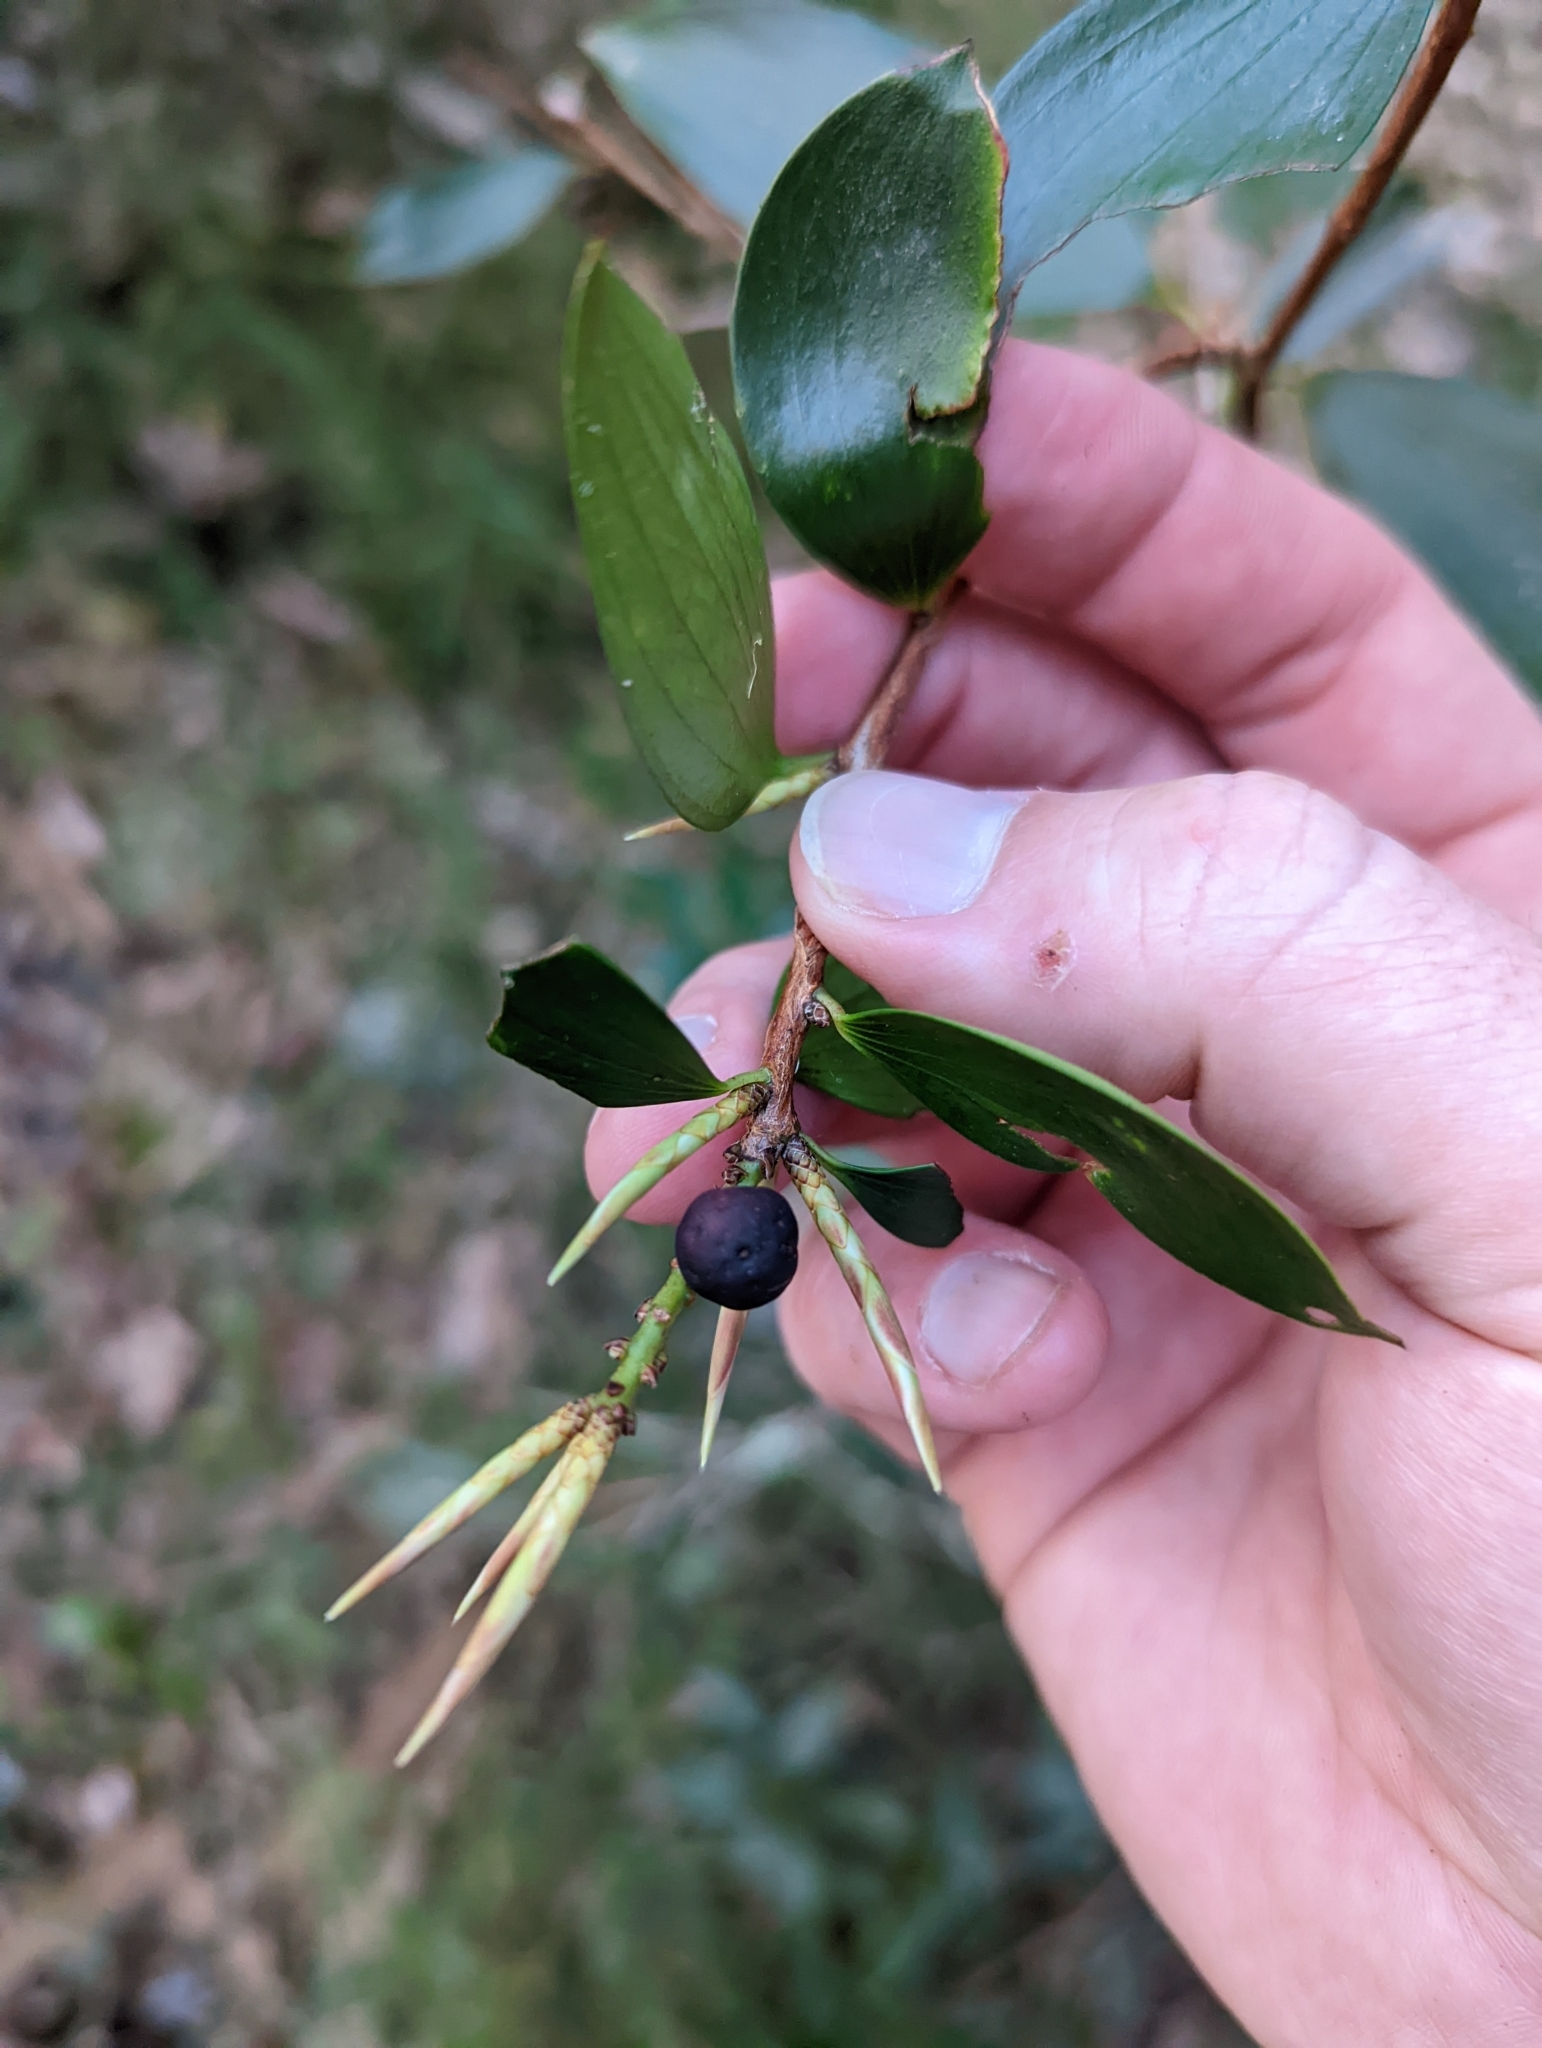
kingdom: Plantae
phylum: Tracheophyta
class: Magnoliopsida
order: Ericales
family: Ericaceae
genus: Trochocarpa
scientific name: Trochocarpa laurina
